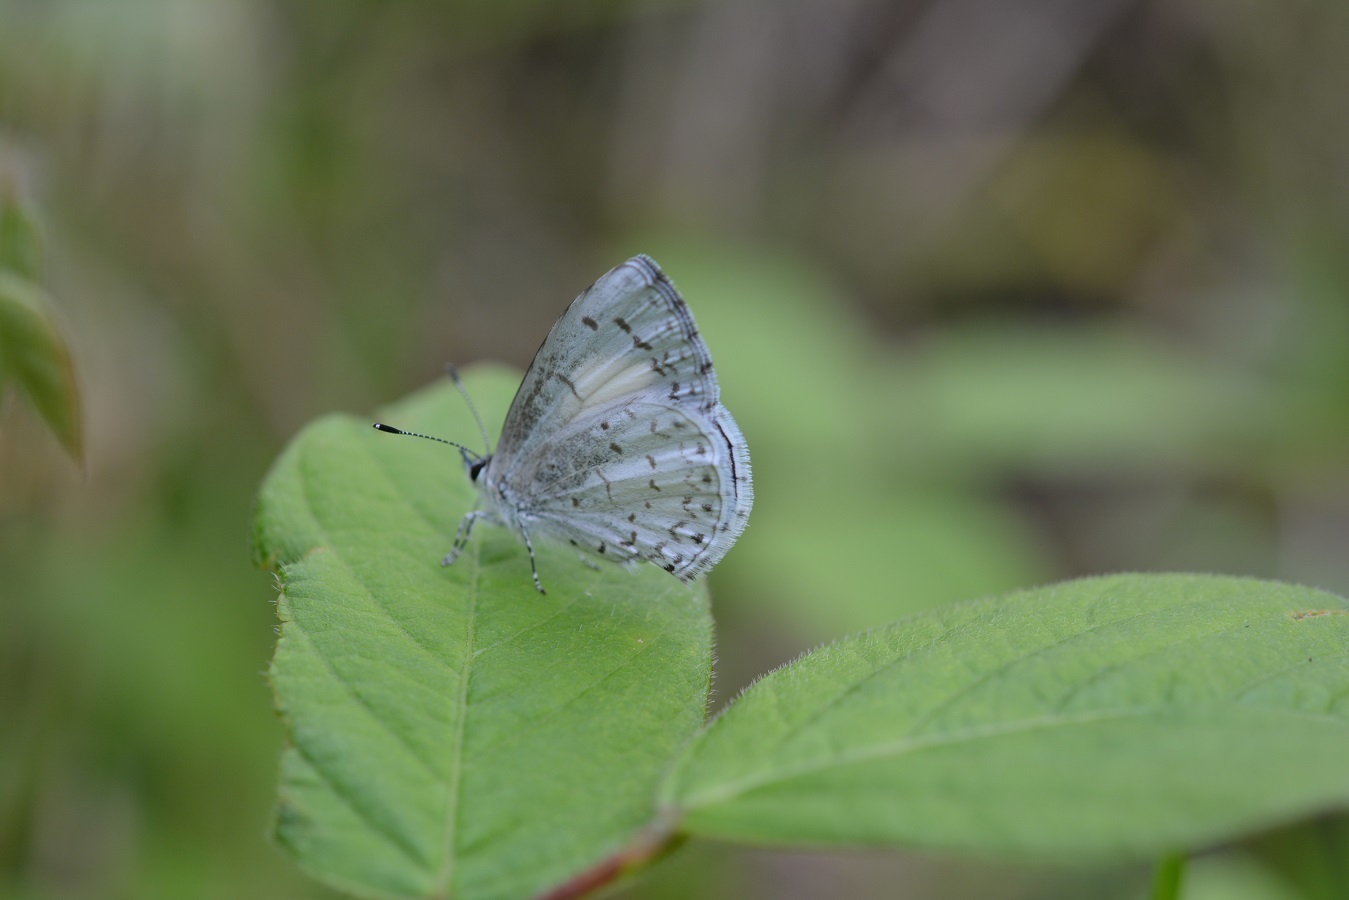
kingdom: Animalia
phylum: Arthropoda
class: Insecta
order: Lepidoptera
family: Lycaenidae
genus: Celastrina
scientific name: Celastrina ladon
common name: Spring azure
